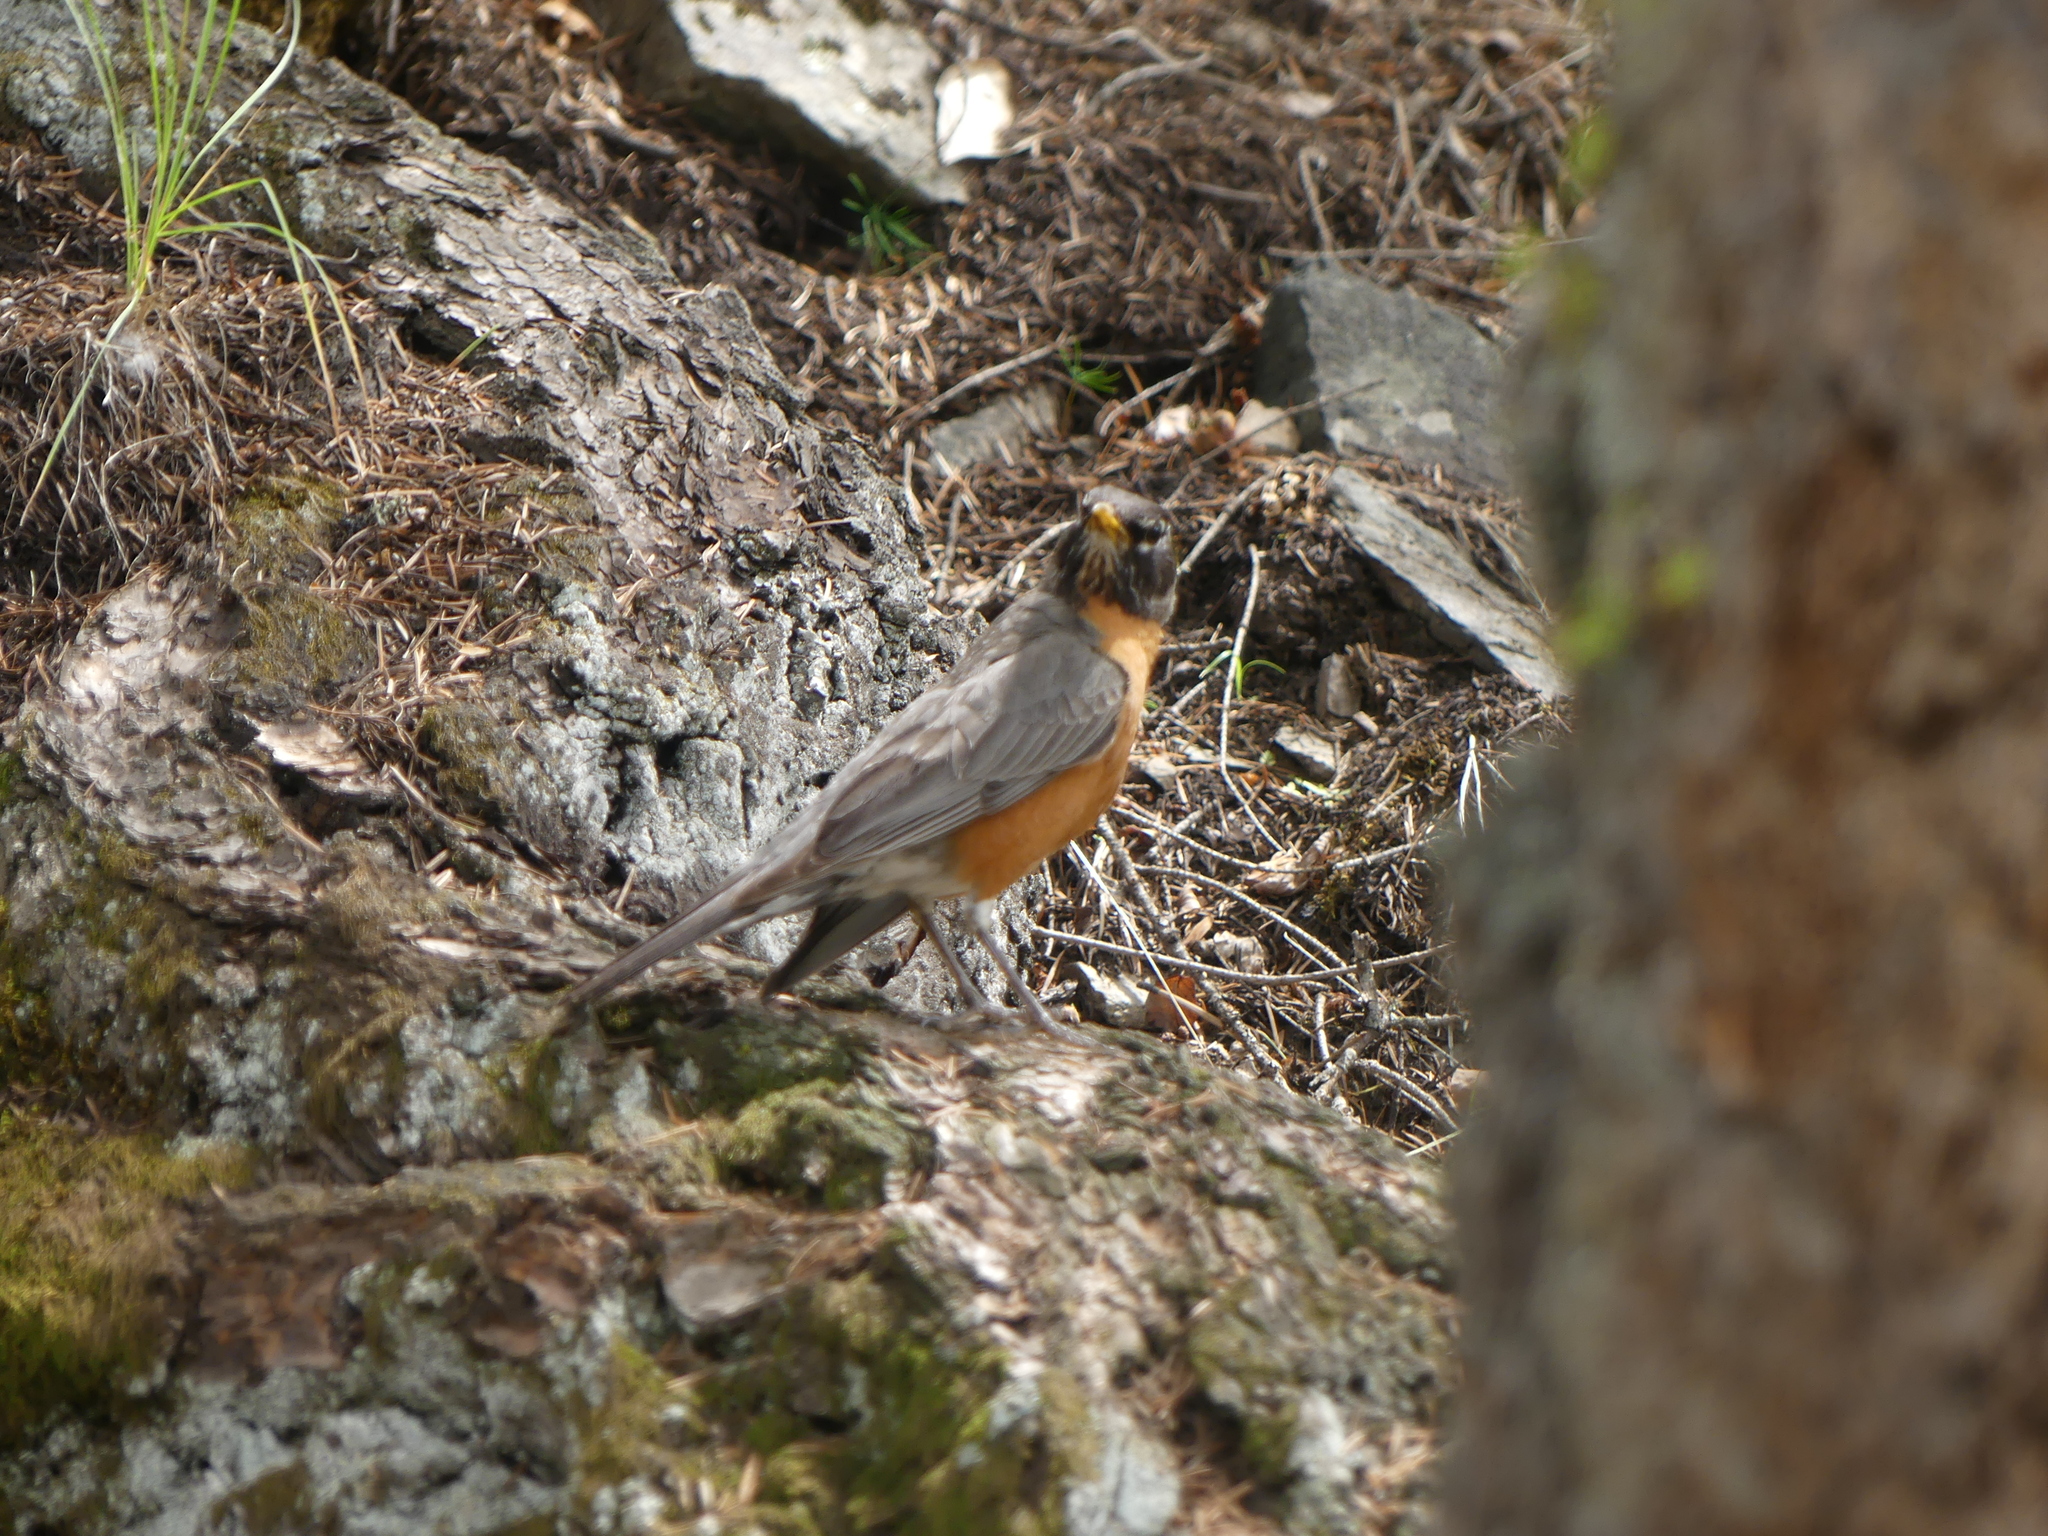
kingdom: Animalia
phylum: Chordata
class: Aves
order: Passeriformes
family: Turdidae
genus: Turdus
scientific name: Turdus migratorius
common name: American robin
